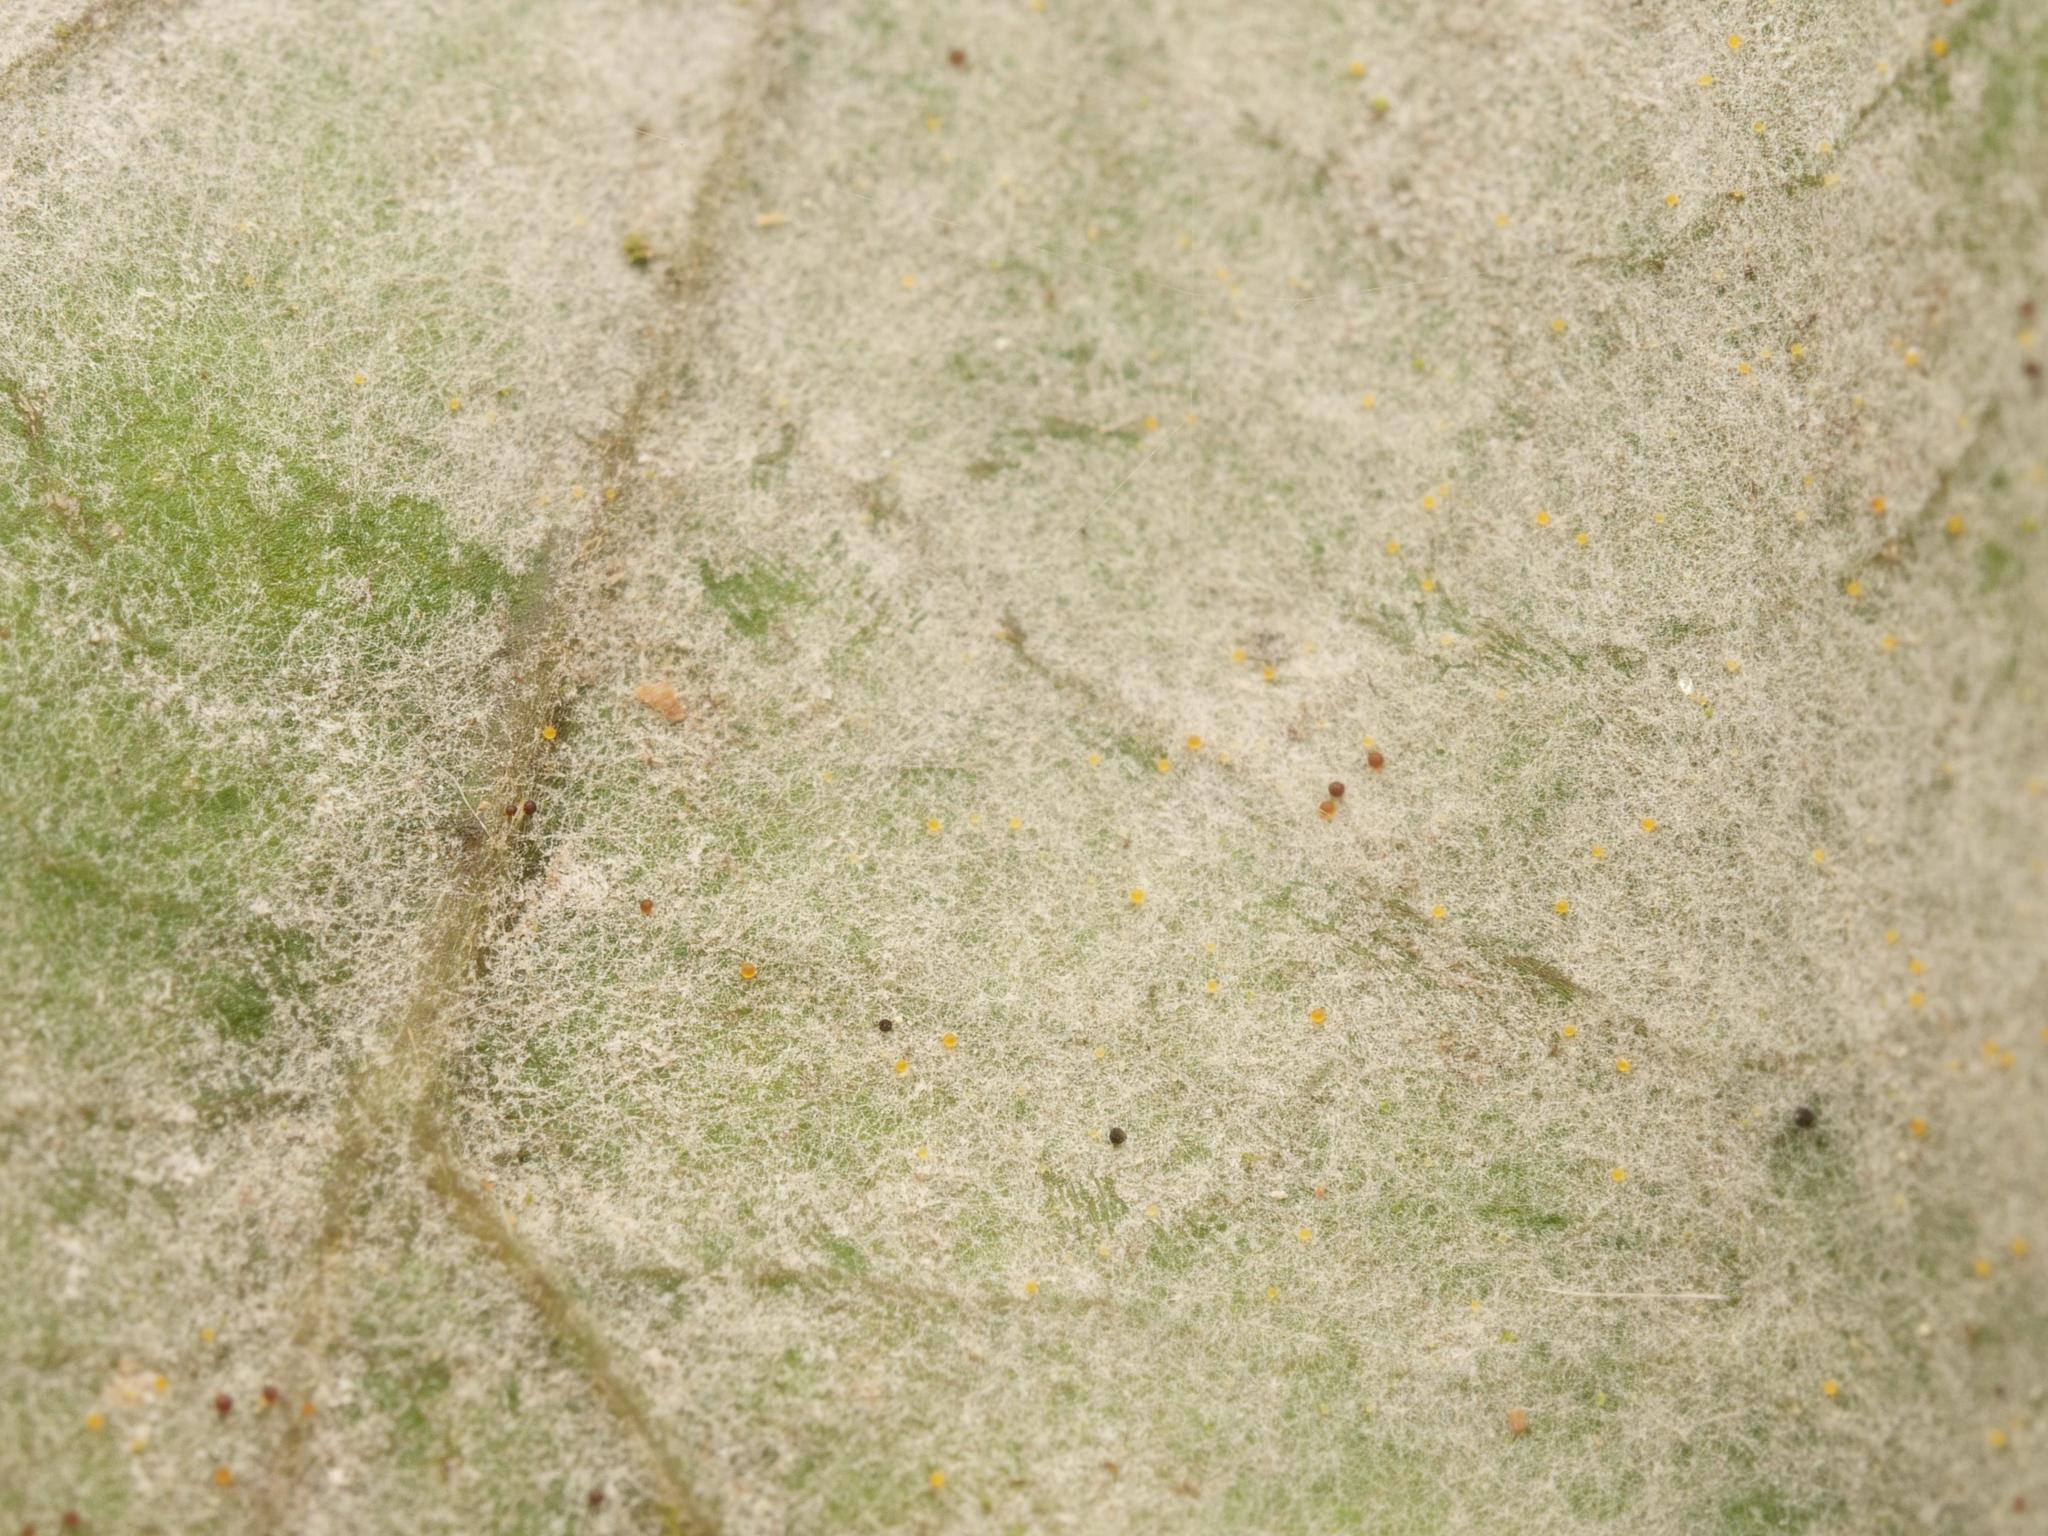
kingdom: Fungi
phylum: Ascomycota
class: Leotiomycetes
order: Helotiales
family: Erysiphaceae
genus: Erysiphe
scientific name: Erysiphe
